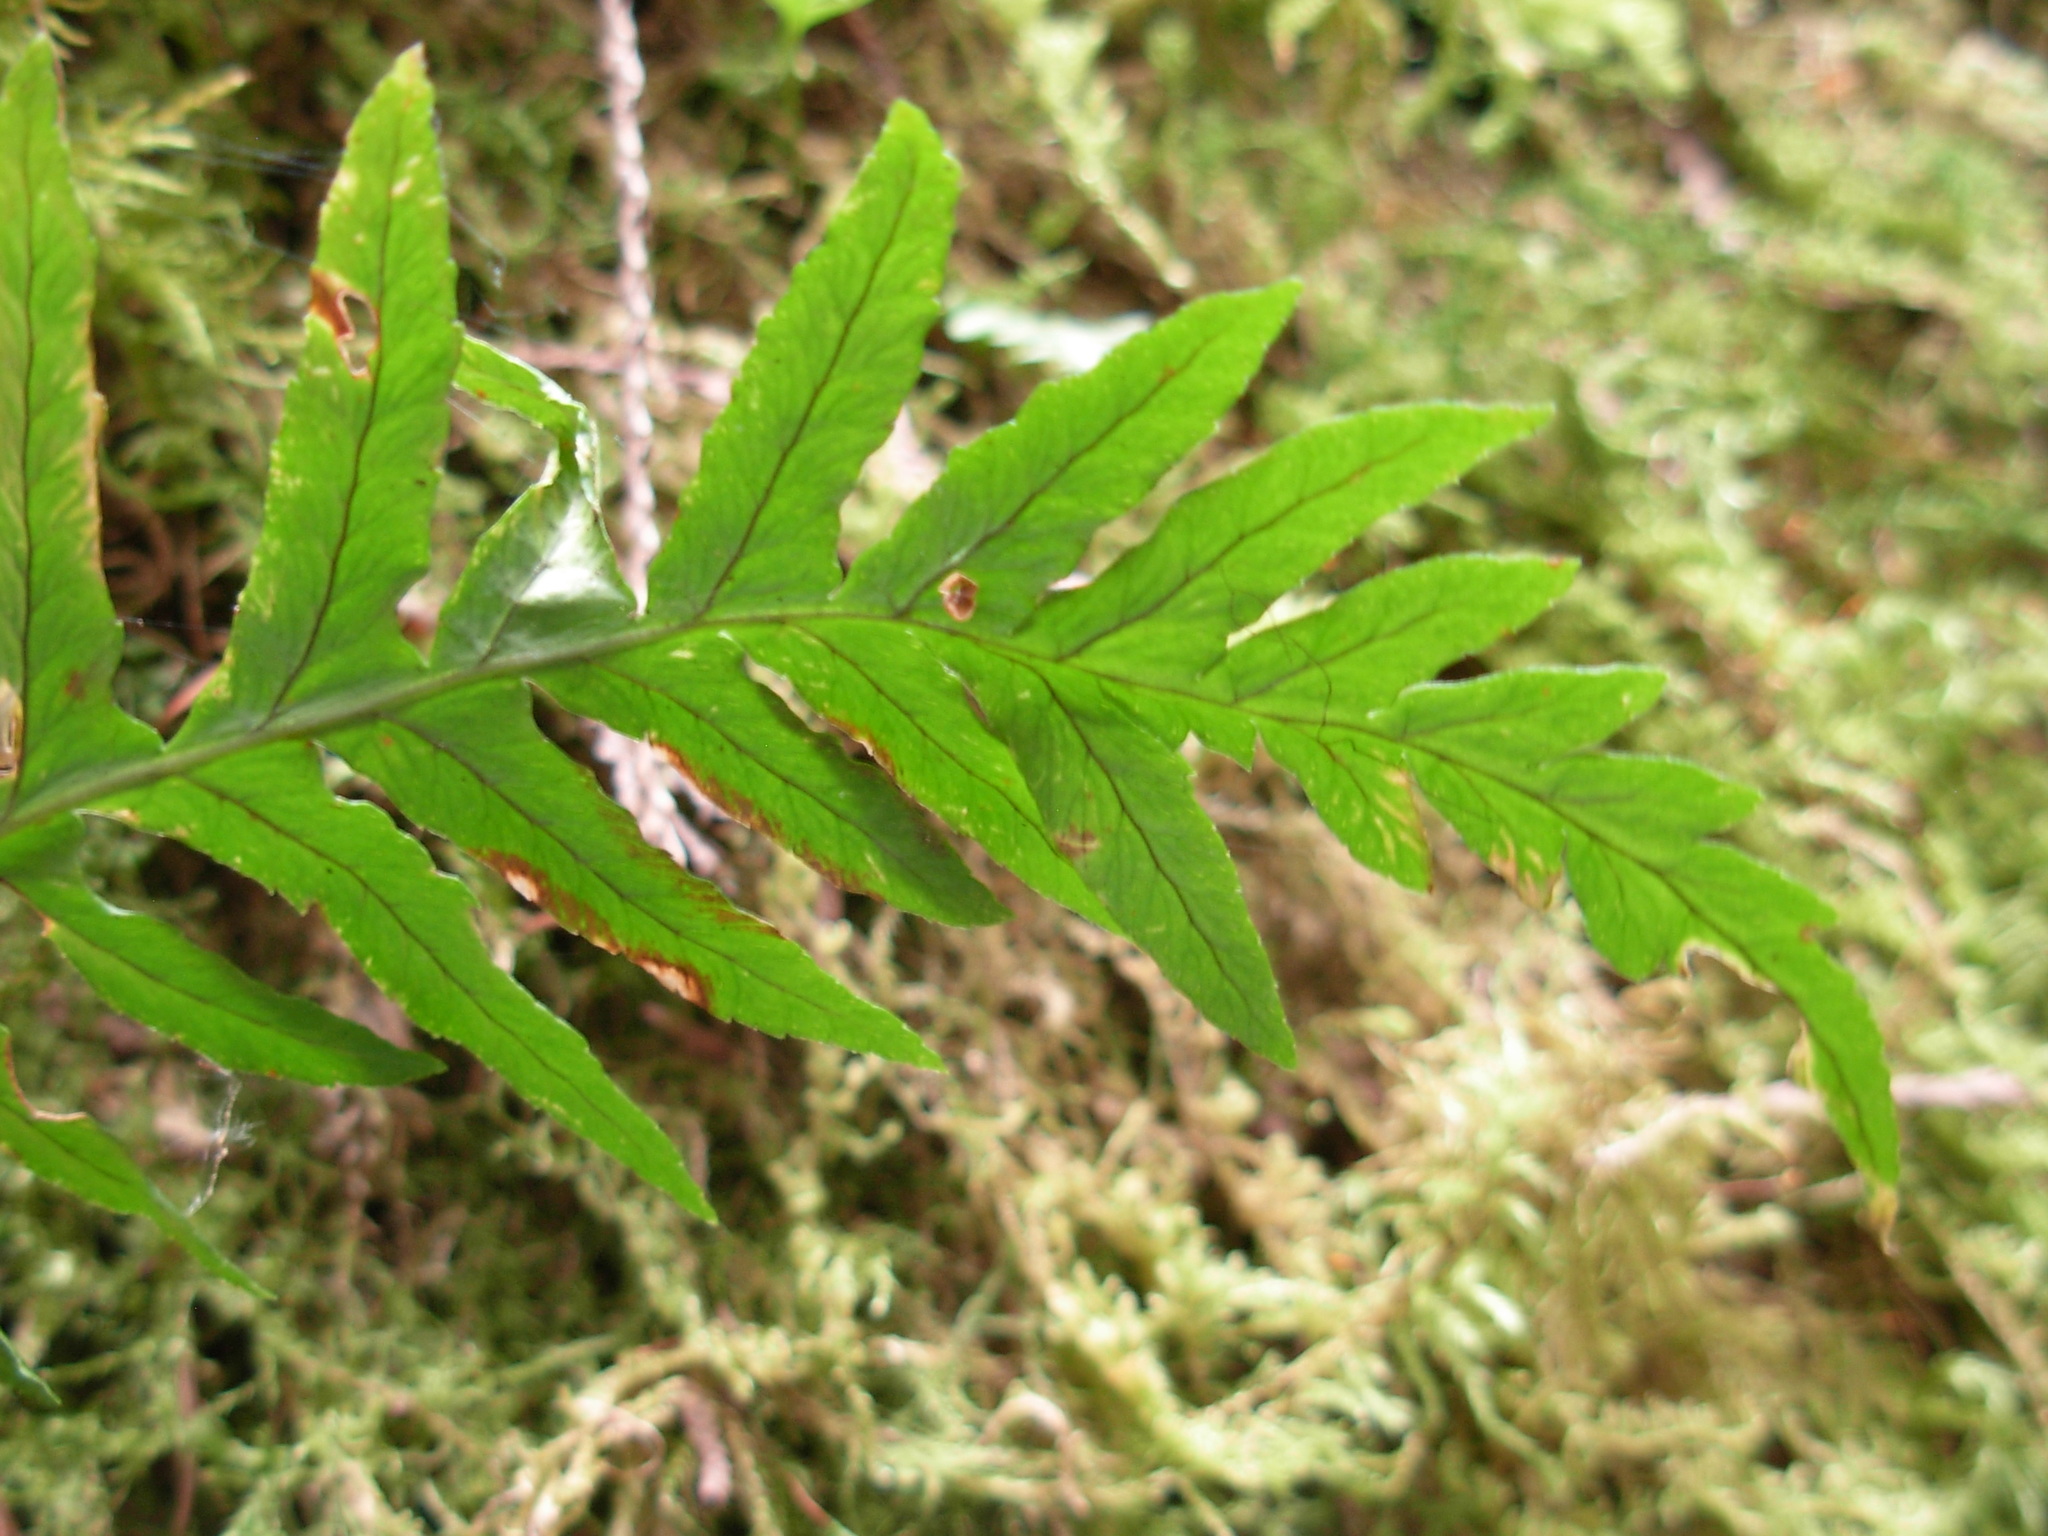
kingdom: Plantae
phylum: Tracheophyta
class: Polypodiopsida
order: Polypodiales
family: Polypodiaceae
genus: Polypodium
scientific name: Polypodium glycyrrhiza
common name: Licorice fern
